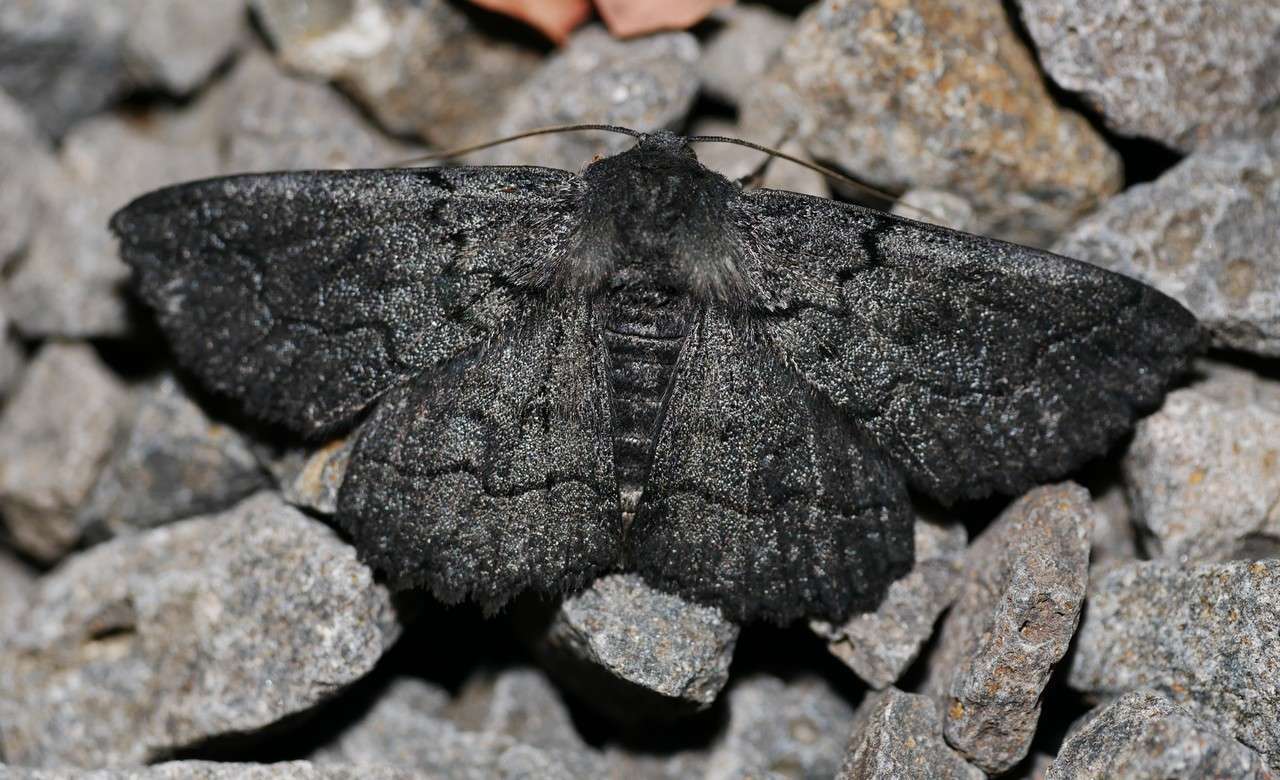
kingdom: Animalia
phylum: Arthropoda
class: Insecta
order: Lepidoptera
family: Geometridae
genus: Melanodes
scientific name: Melanodes anthracitaria
